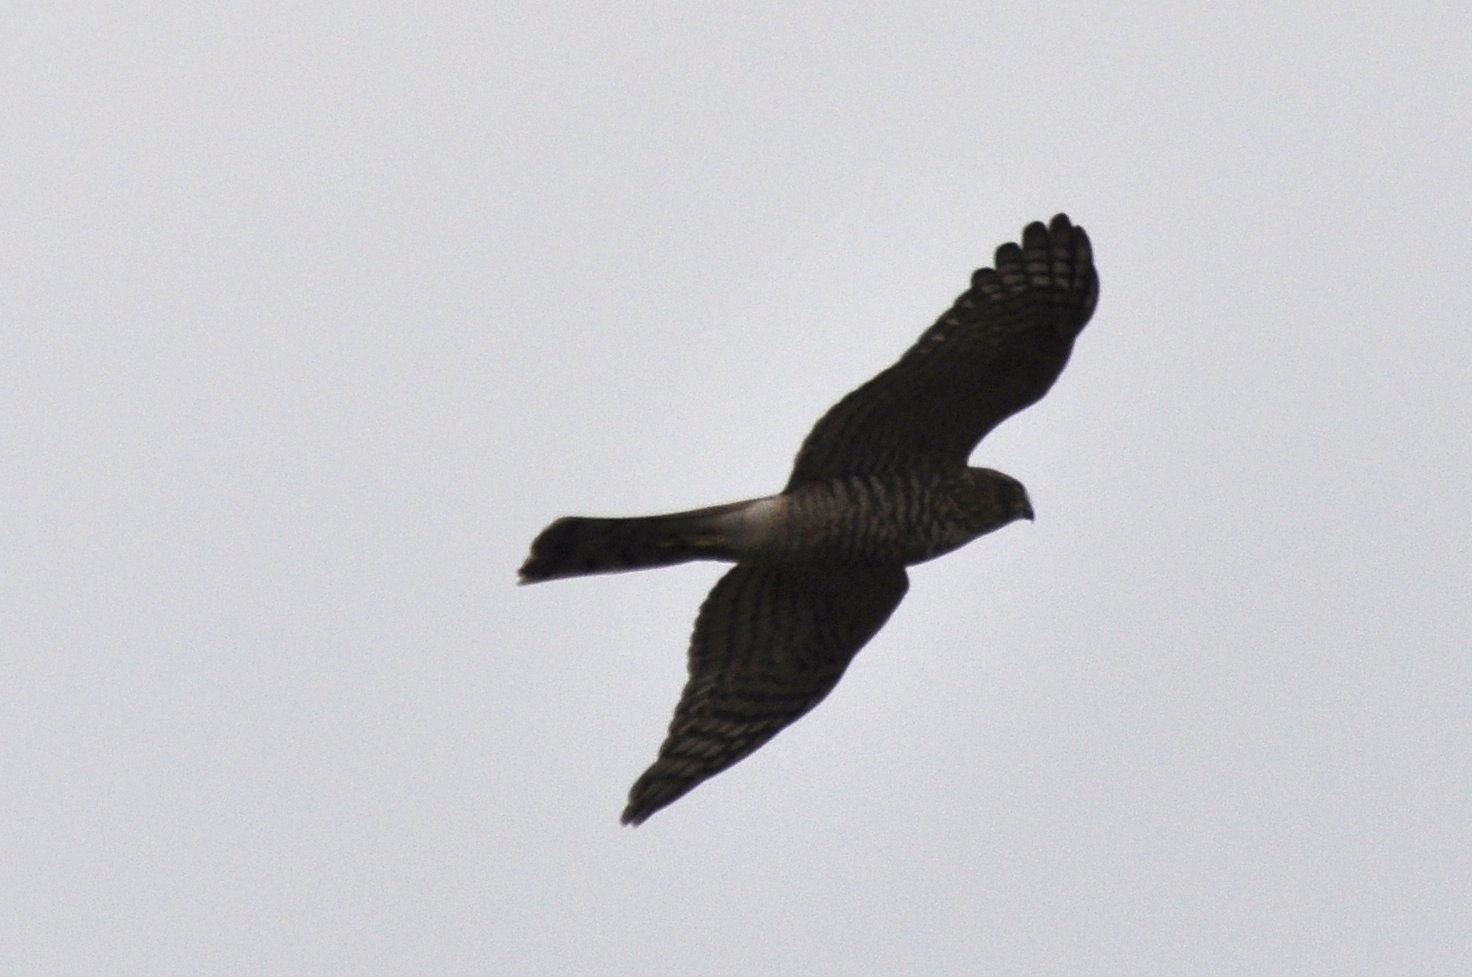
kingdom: Animalia
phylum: Chordata
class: Aves
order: Accipitriformes
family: Accipitridae
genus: Accipiter
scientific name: Accipiter nisus
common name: Eurasian sparrowhawk
